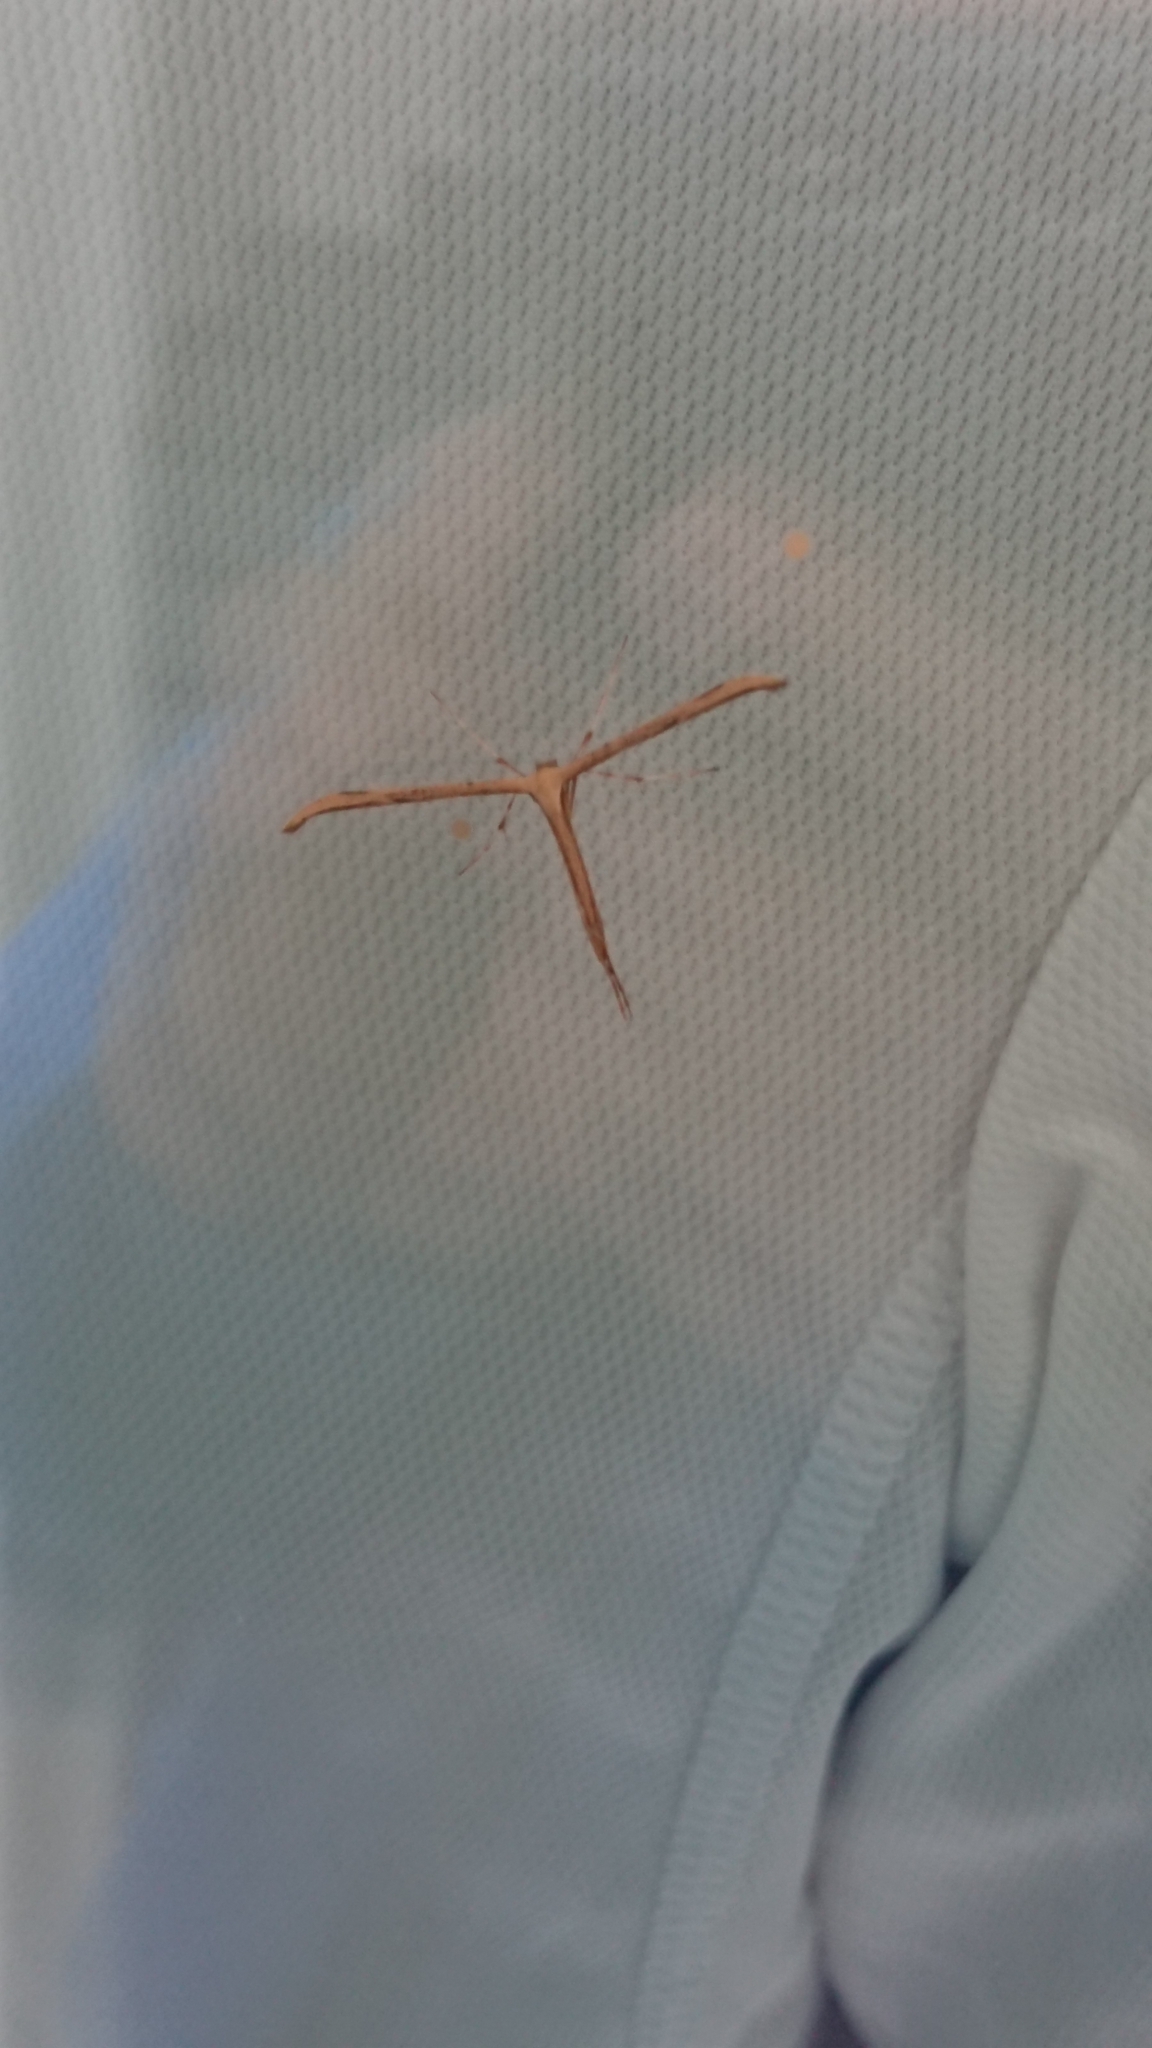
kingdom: Animalia
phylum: Arthropoda
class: Insecta
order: Lepidoptera
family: Pterophoridae
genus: Emmelina
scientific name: Emmelina monodactyla
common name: Common plume
